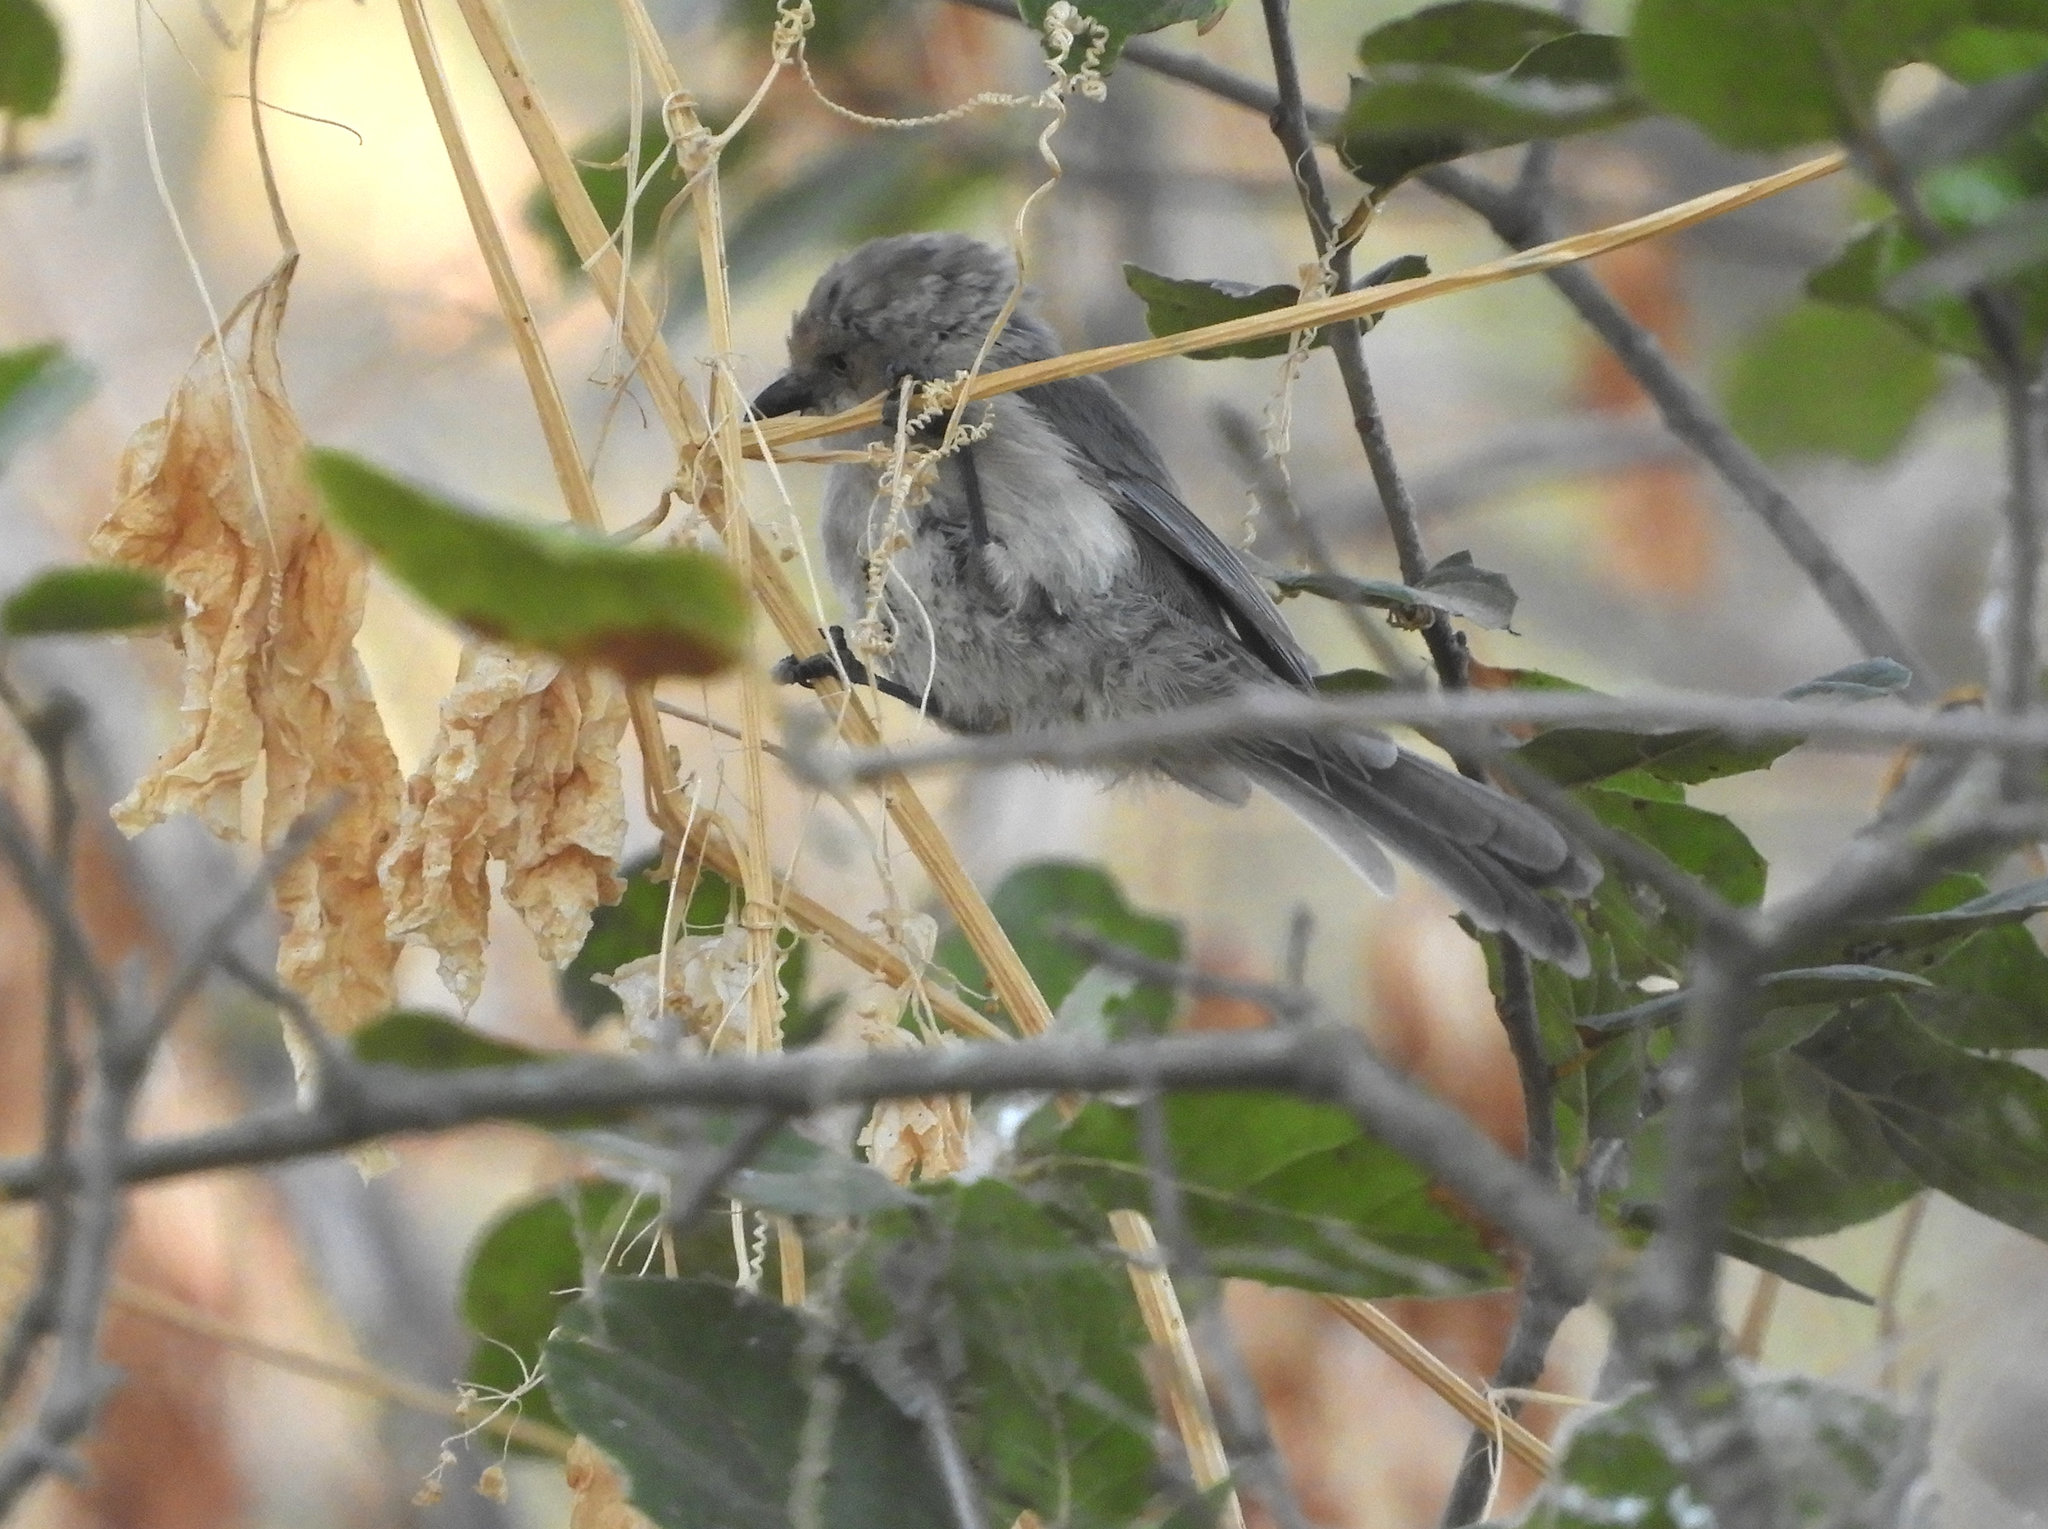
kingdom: Animalia
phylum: Chordata
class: Aves
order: Passeriformes
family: Aegithalidae
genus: Psaltriparus
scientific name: Psaltriparus minimus
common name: American bushtit
